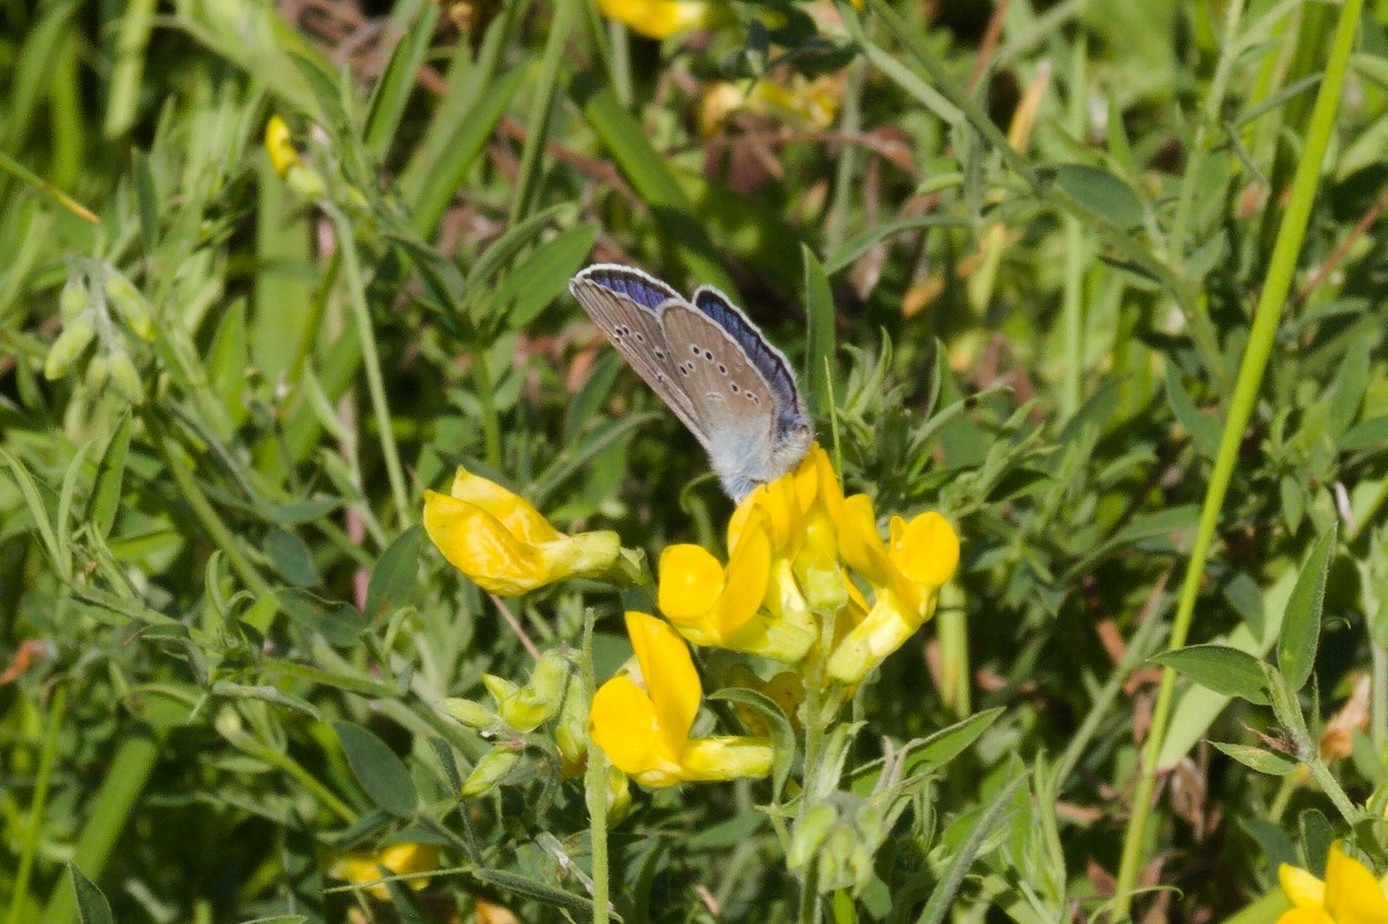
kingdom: Animalia
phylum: Arthropoda
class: Insecta
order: Lepidoptera
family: Lycaenidae
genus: Cyaniris
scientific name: Cyaniris semiargus
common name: Mazarine blue
